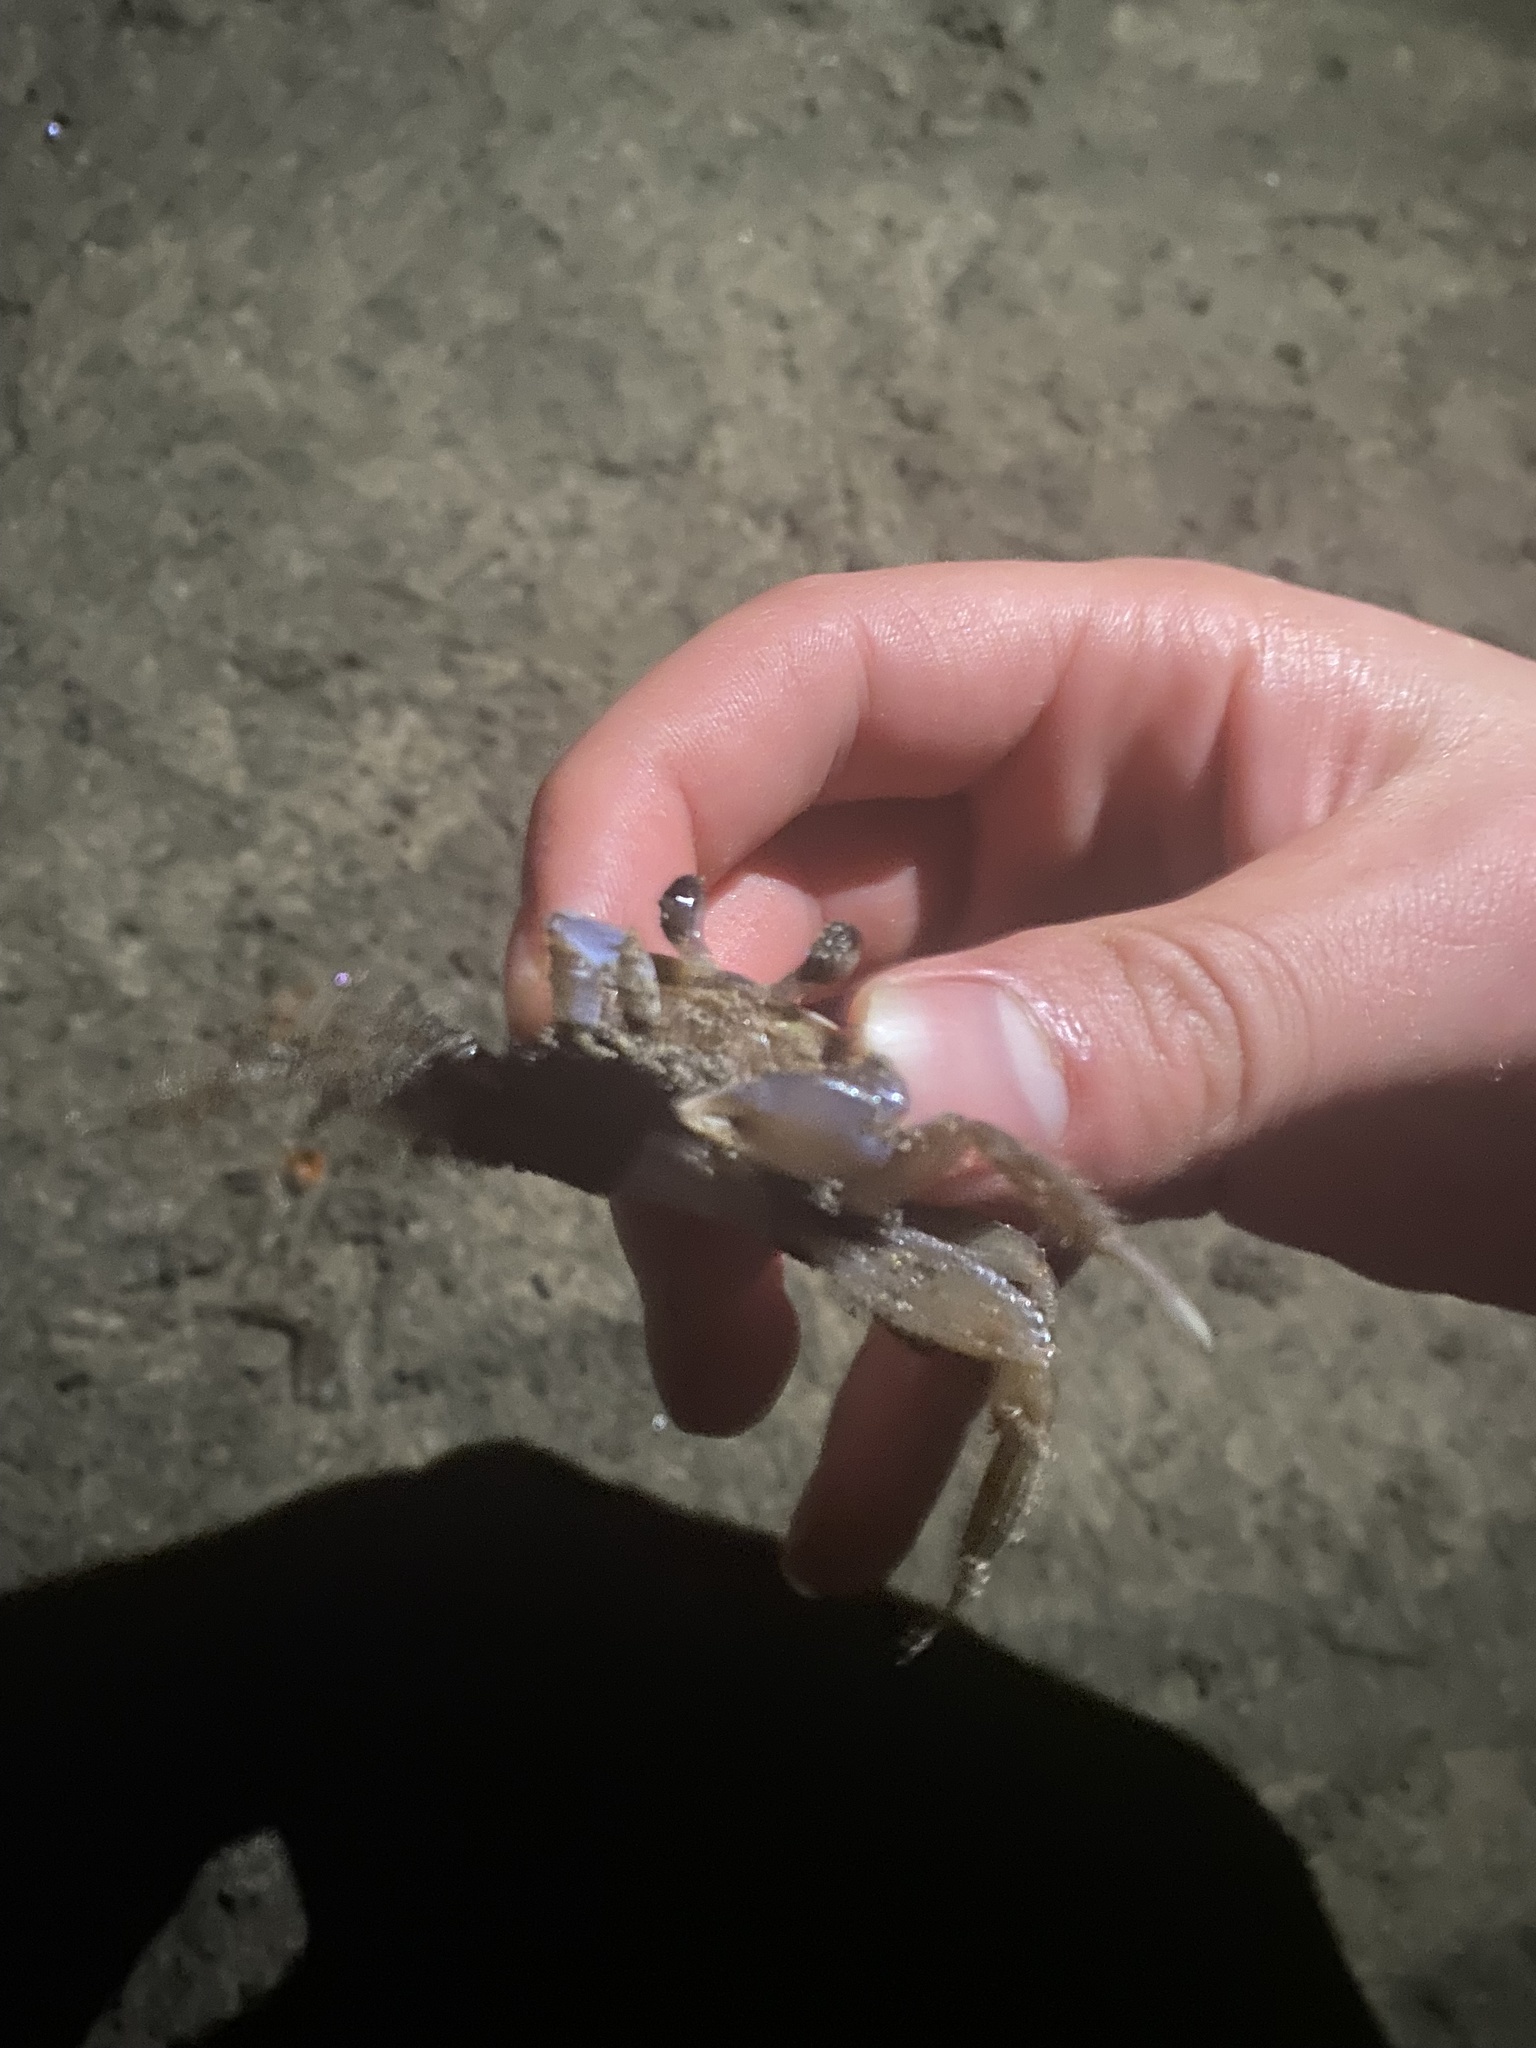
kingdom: Animalia
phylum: Arthropoda
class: Malacostraca
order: Decapoda
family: Ocypodidae
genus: Ocypode
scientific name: Ocypode quadrata
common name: Ghost crab
